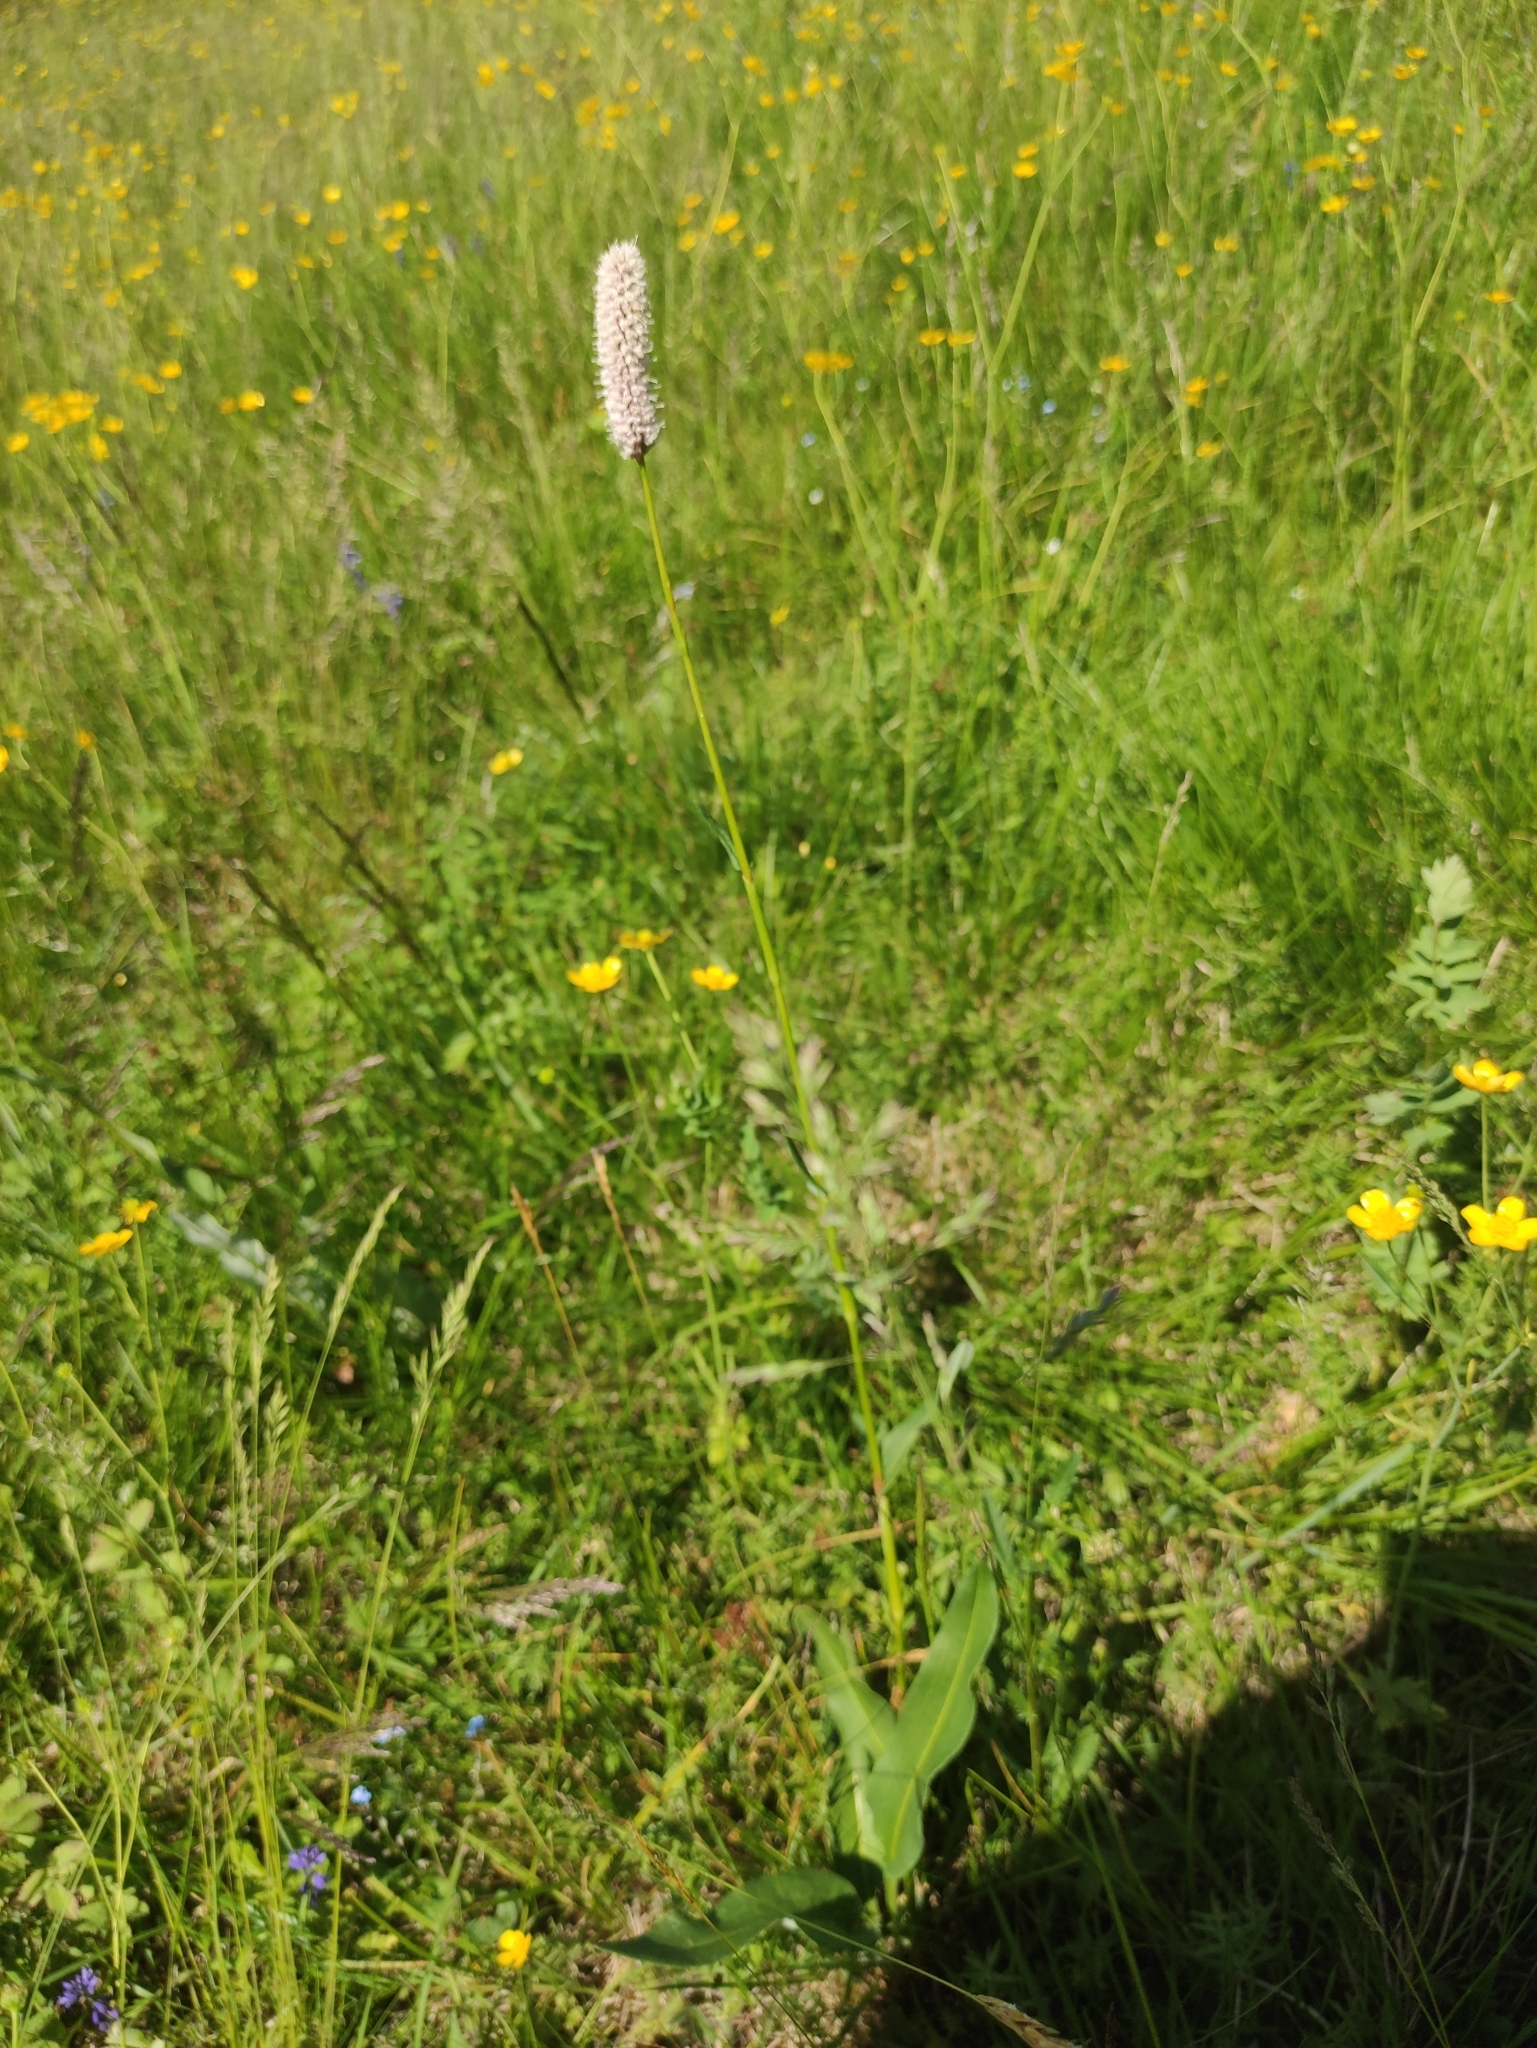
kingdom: Plantae
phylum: Tracheophyta
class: Magnoliopsida
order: Caryophyllales
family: Polygonaceae
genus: Bistorta
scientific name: Bistorta officinalis
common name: Common bistort
